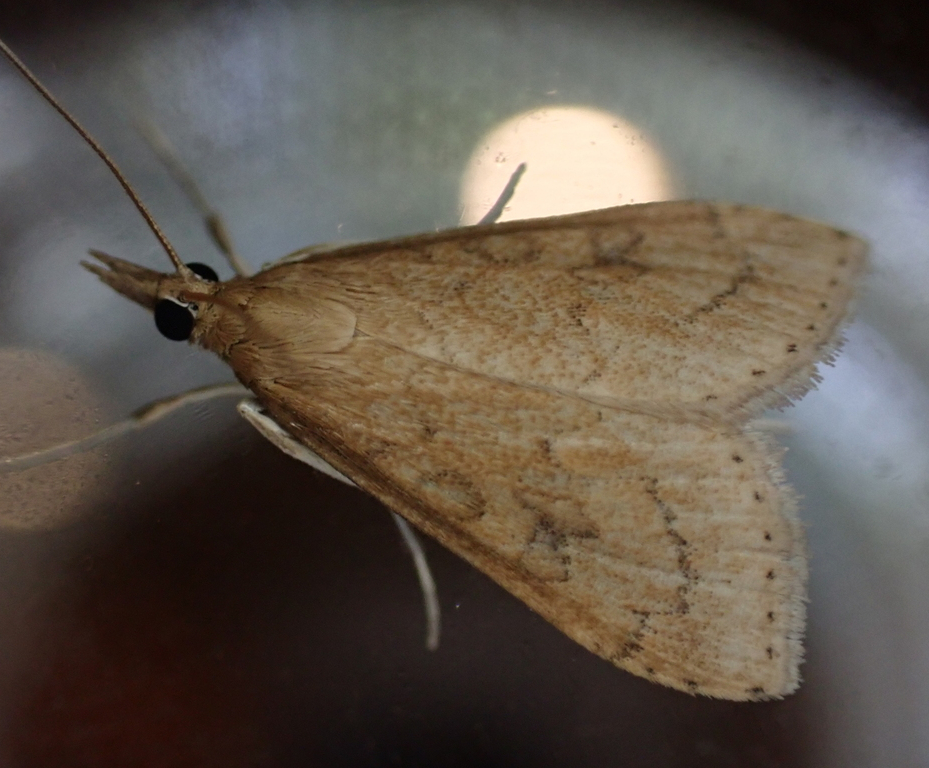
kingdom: Animalia
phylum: Arthropoda
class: Insecta
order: Lepidoptera
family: Crambidae
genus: Udea
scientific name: Udea rubigalis
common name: Celery leaftier moth
